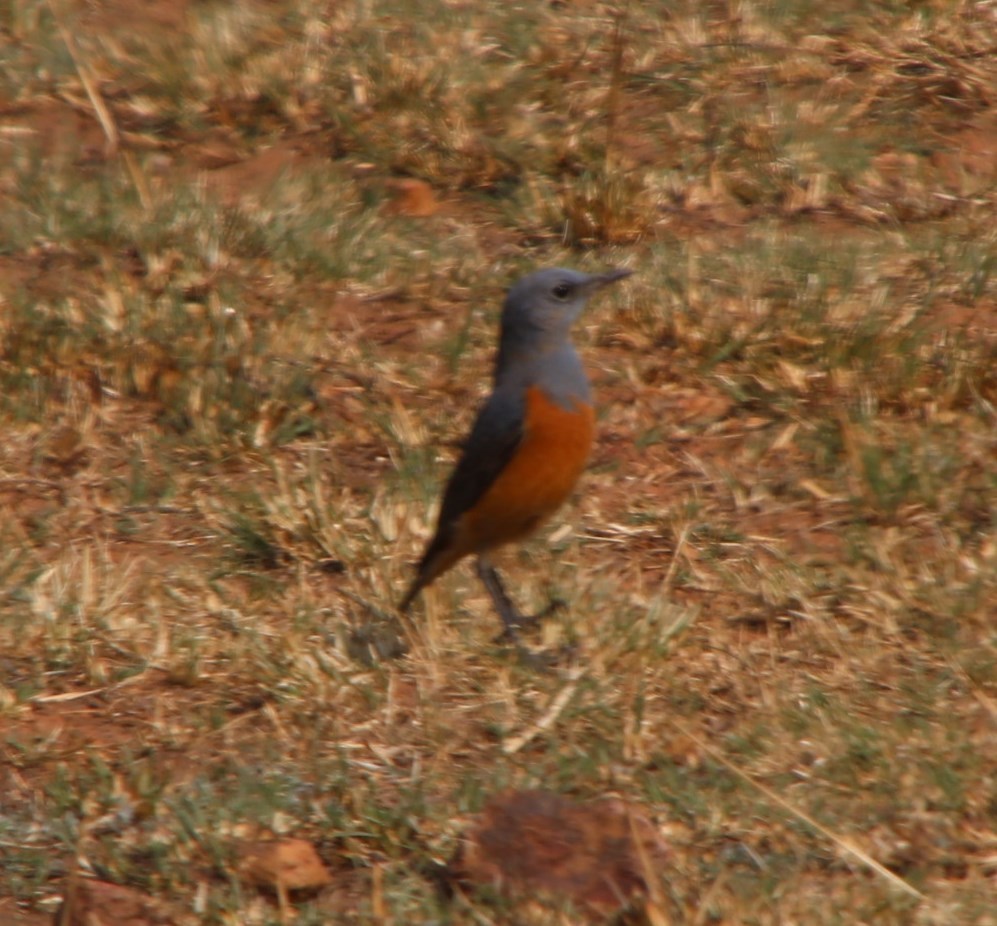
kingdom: Animalia
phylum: Chordata
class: Aves
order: Passeriformes
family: Muscicapidae
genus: Monticola
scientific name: Monticola explorator
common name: Sentinel rock thrush
